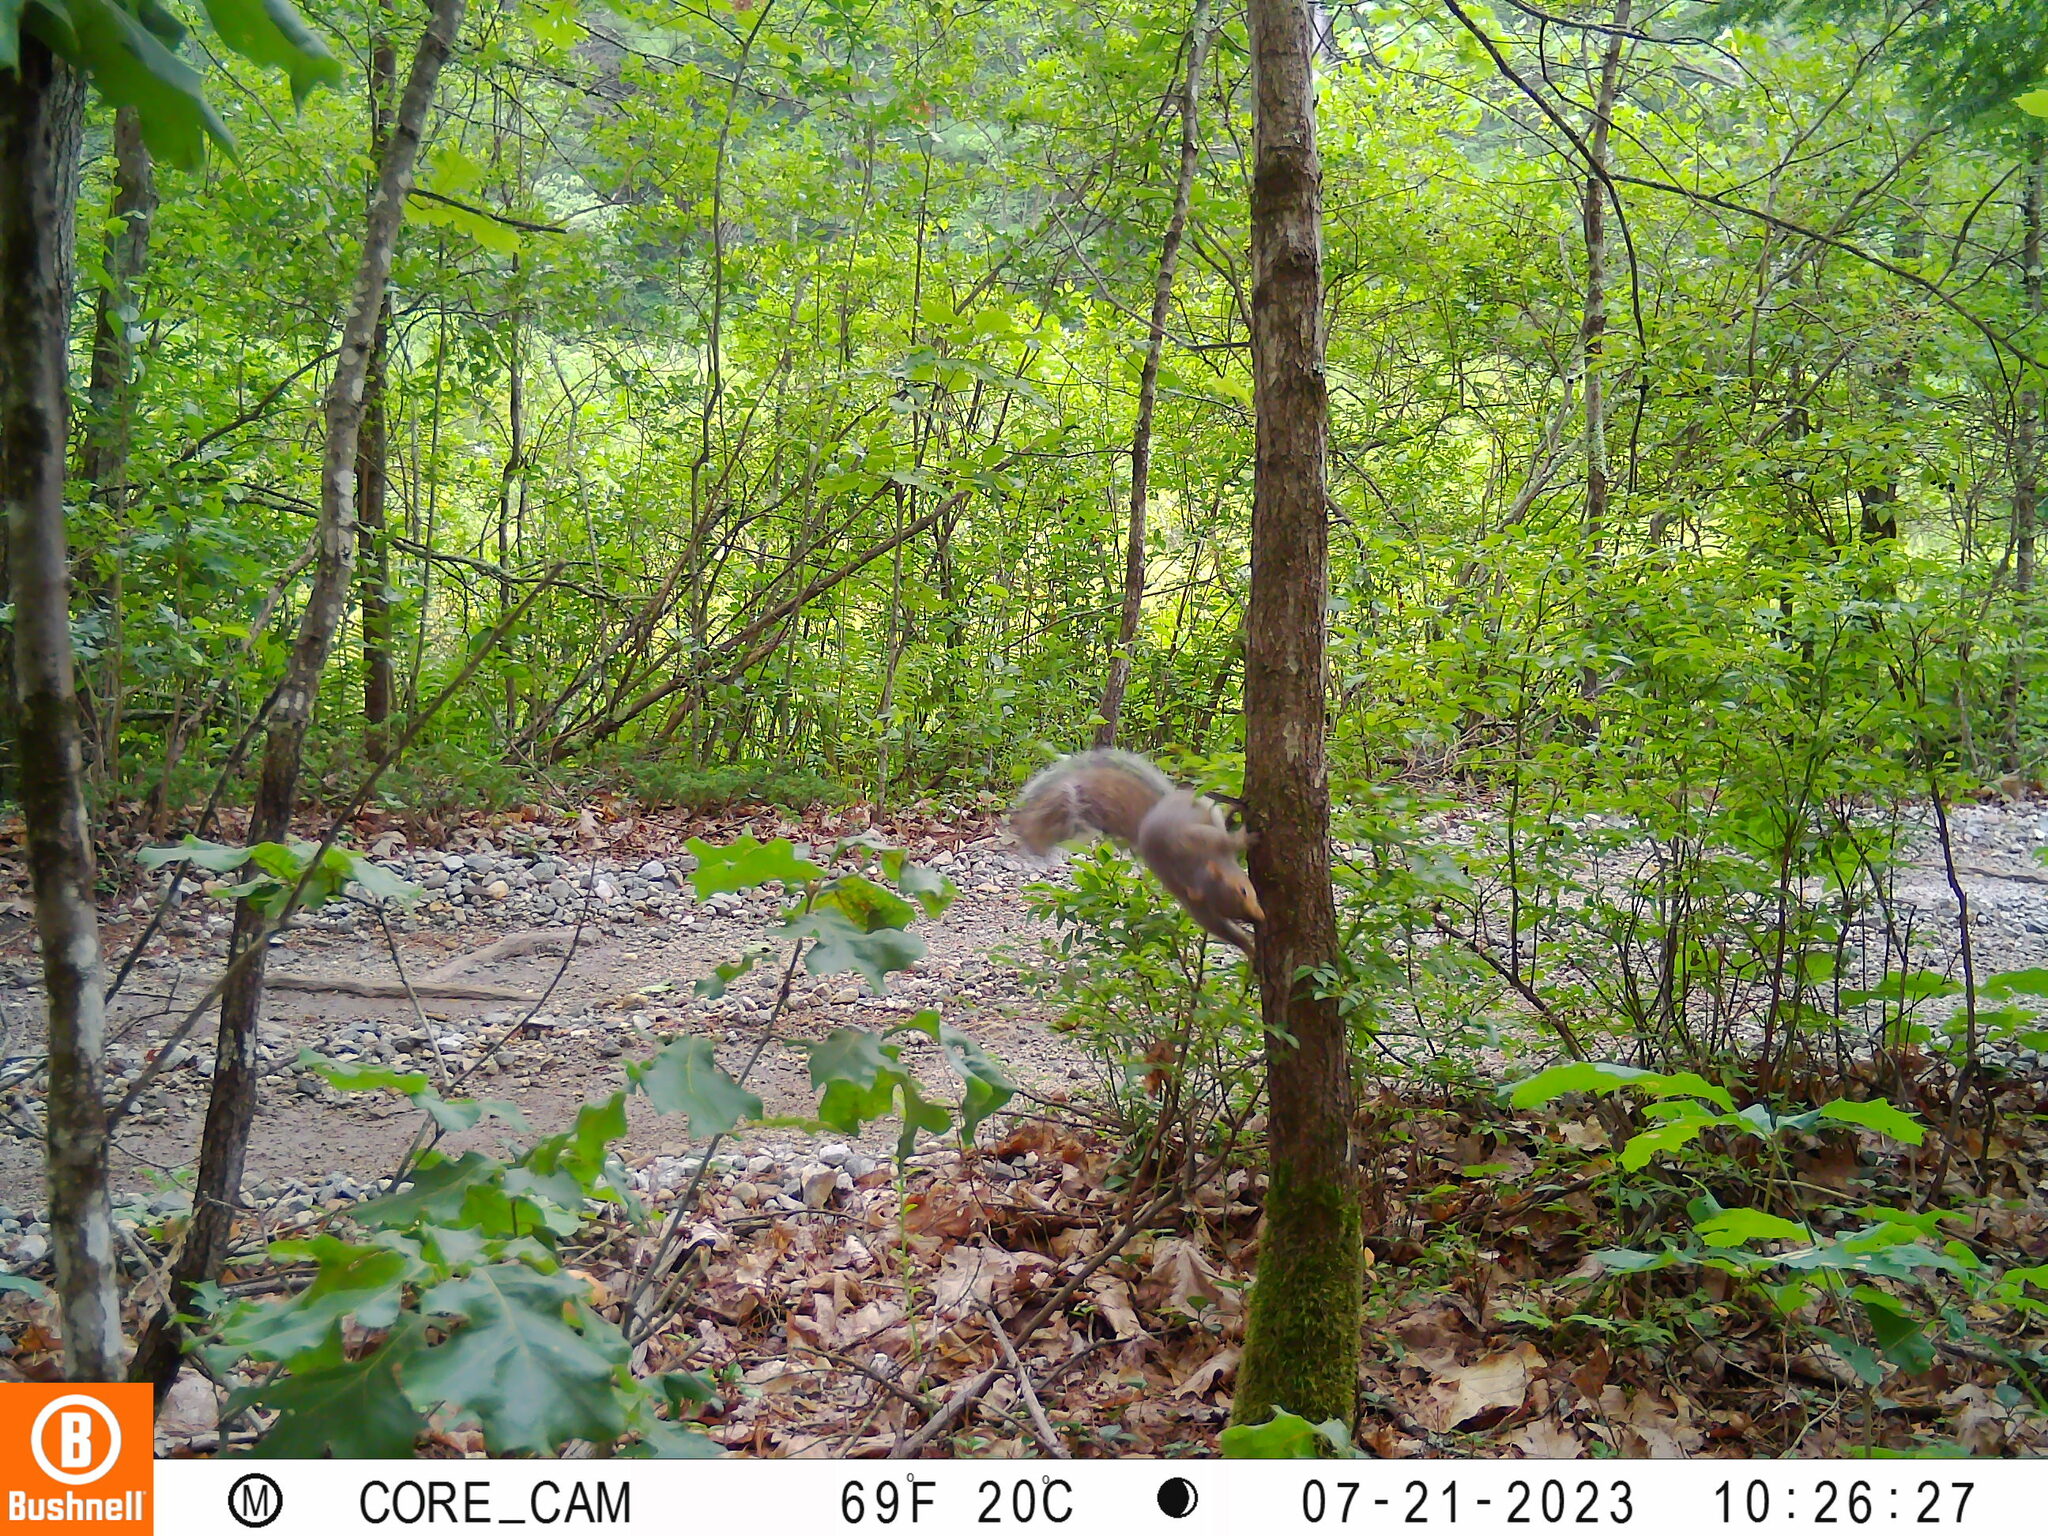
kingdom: Animalia
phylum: Chordata
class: Mammalia
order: Rodentia
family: Sciuridae
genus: Sciurus
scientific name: Sciurus carolinensis
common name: Eastern gray squirrel
